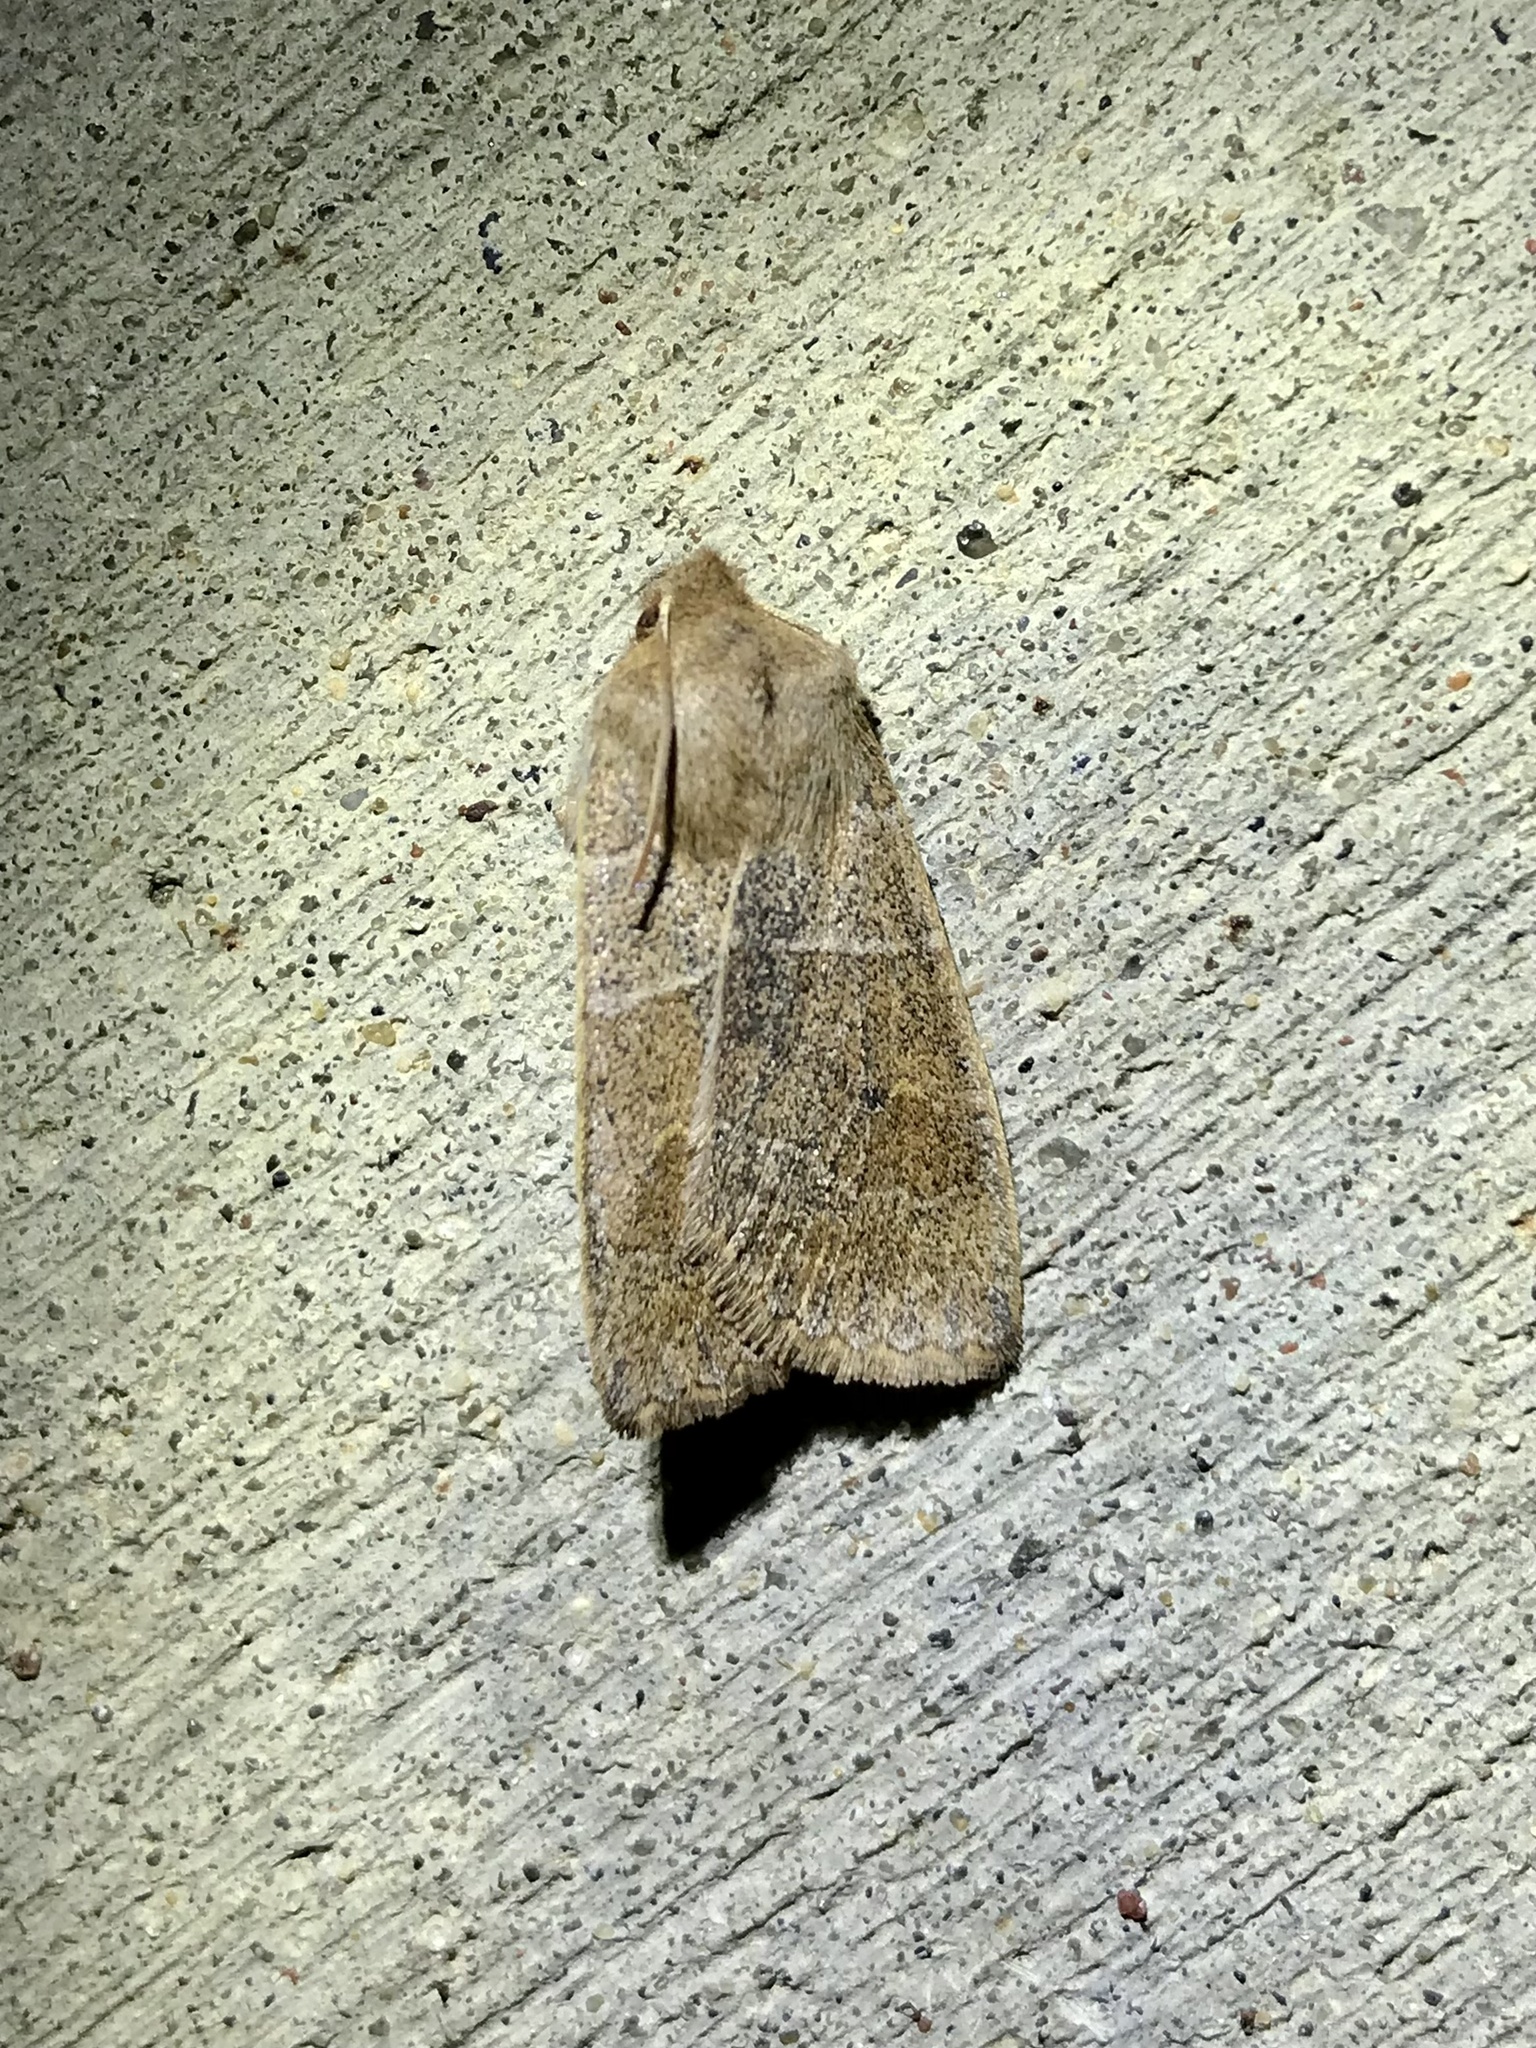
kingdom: Animalia
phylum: Arthropoda
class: Insecta
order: Lepidoptera
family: Noctuidae
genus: Eupsilia
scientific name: Eupsilia morrisoni
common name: Morrison's sallow
